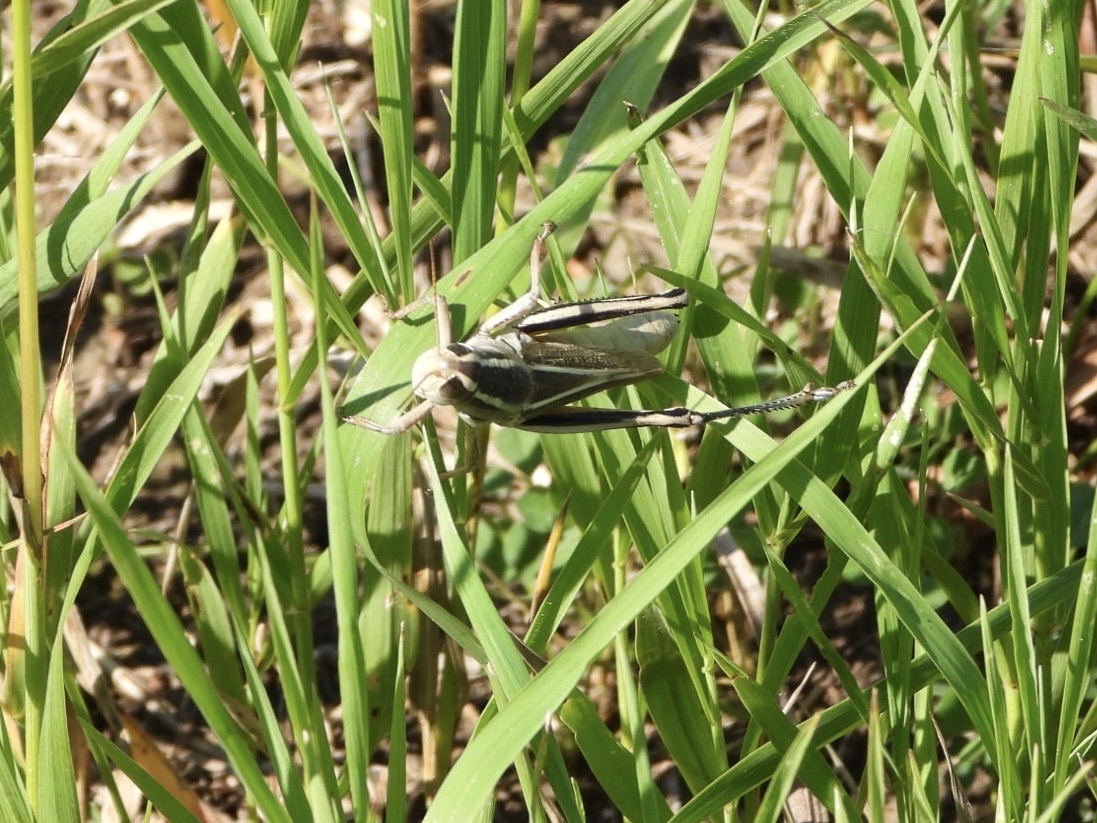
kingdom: Animalia
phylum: Arthropoda
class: Insecta
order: Orthoptera
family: Acrididae
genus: Melanoplus
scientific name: Melanoplus bivittatus
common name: Two-striped grasshopper
